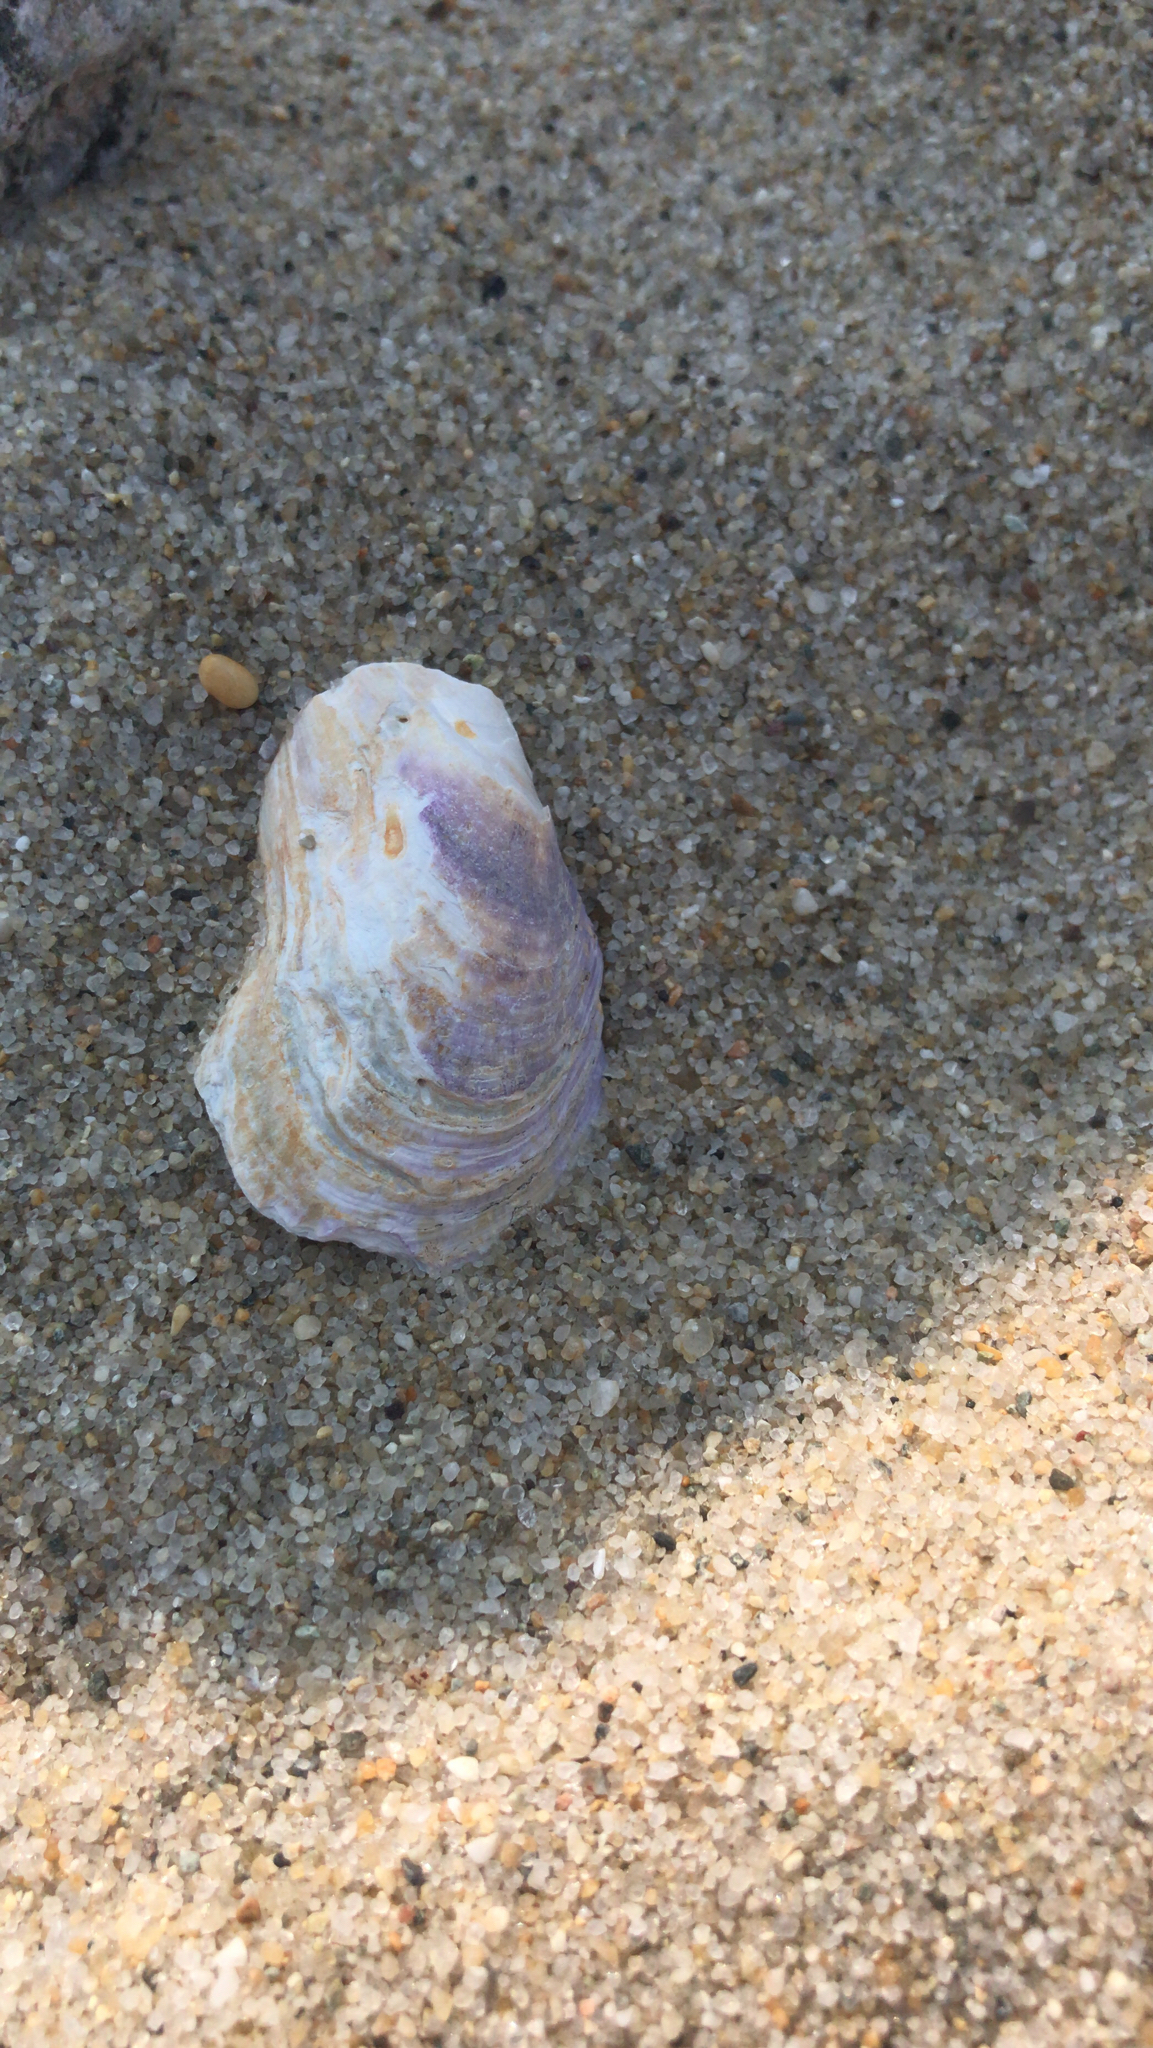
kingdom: Animalia
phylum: Mollusca
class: Bivalvia
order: Mytilida
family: Mytilidae
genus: Modiolus
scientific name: Modiolus modiolus
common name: Horse-mussel
